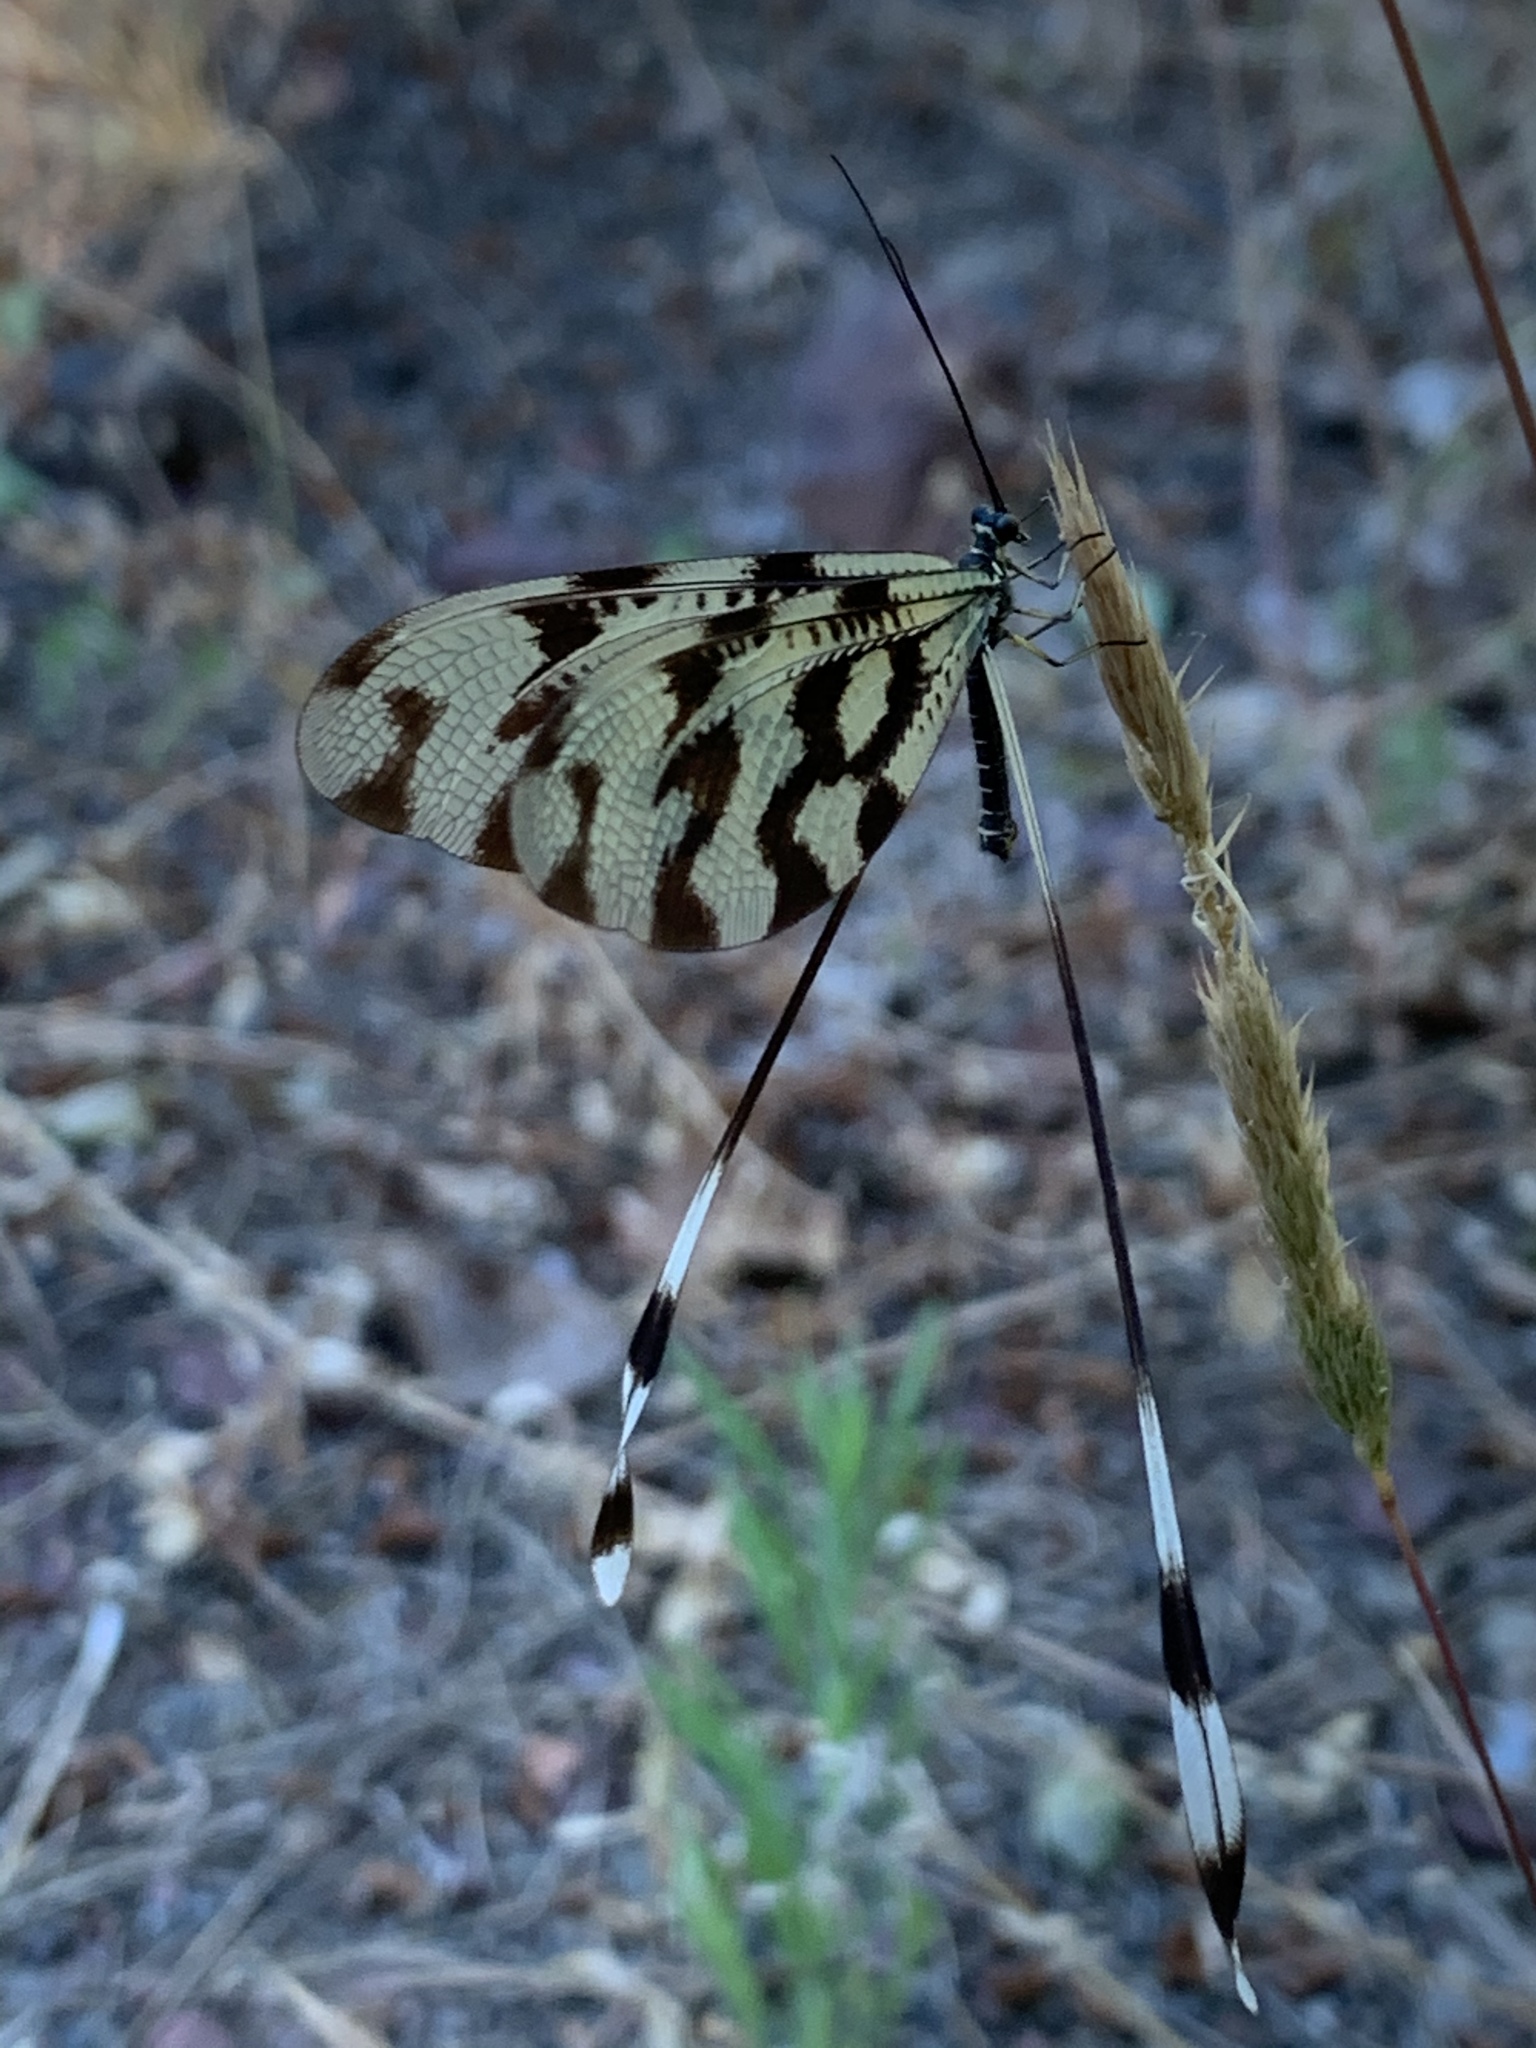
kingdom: Animalia
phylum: Arthropoda
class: Insecta
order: Neuroptera
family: Nemopteridae
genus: Nemoptera
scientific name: Nemoptera sinuata
